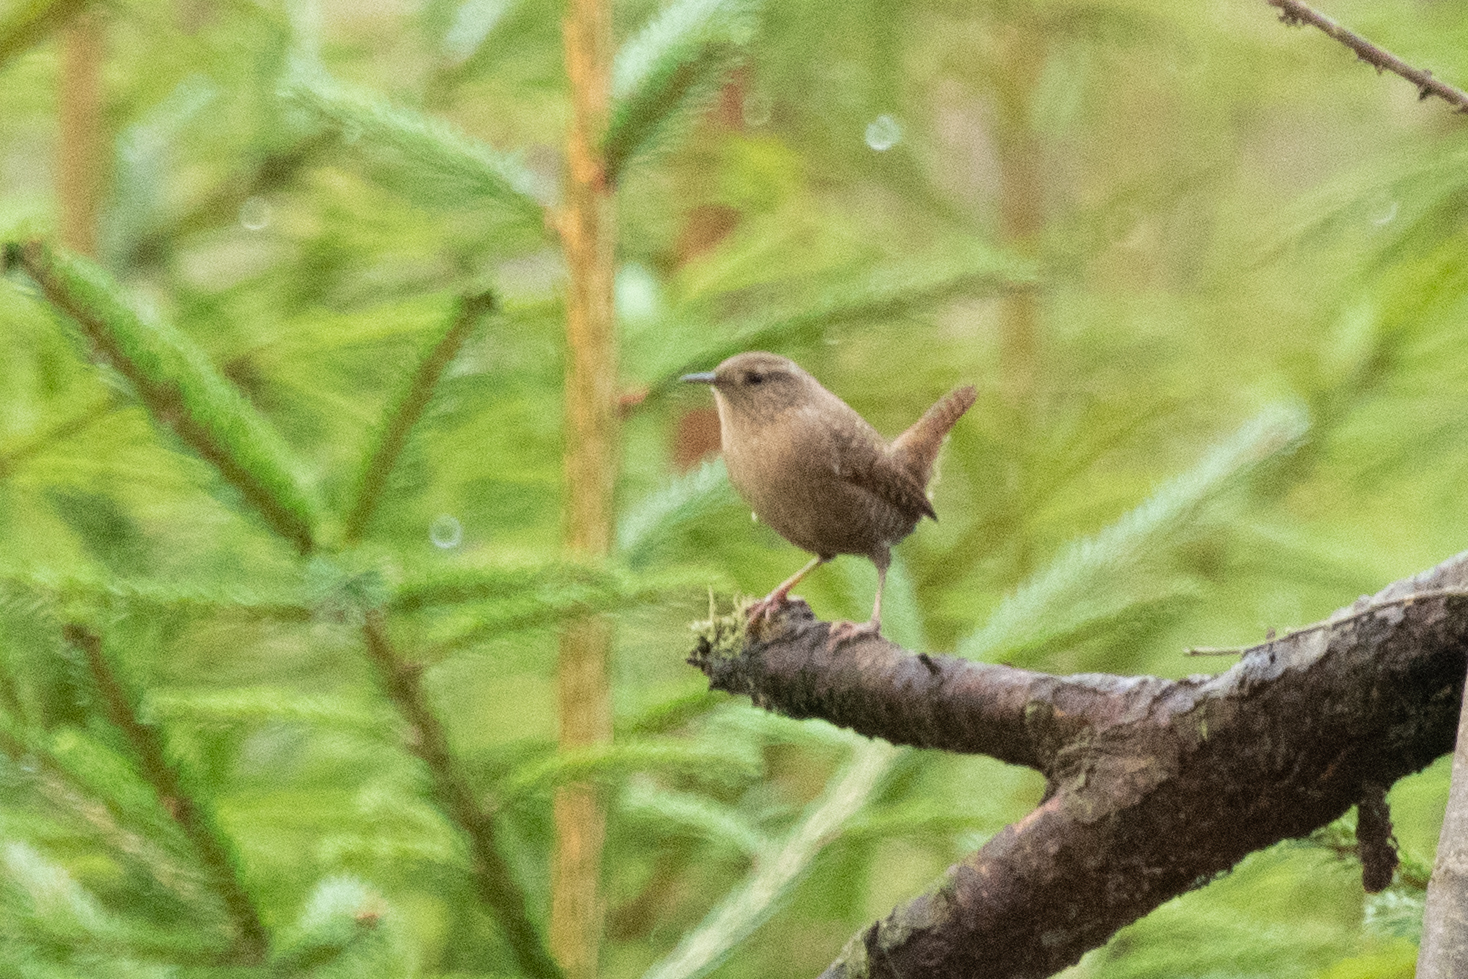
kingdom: Animalia
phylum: Chordata
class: Aves
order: Passeriformes
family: Troglodytidae
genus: Troglodytes
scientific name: Troglodytes troglodytes
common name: Eurasian wren
